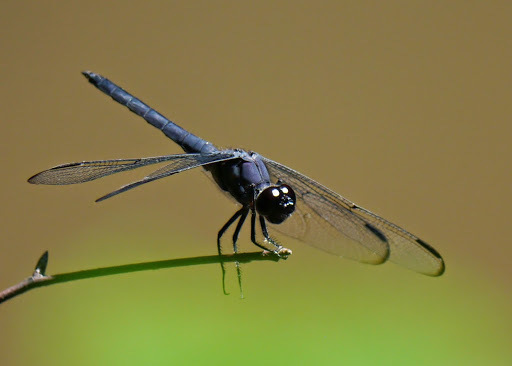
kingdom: Animalia
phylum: Arthropoda
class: Insecta
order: Odonata
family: Libellulidae
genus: Libellula
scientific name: Libellula incesta
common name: Slaty skimmer
